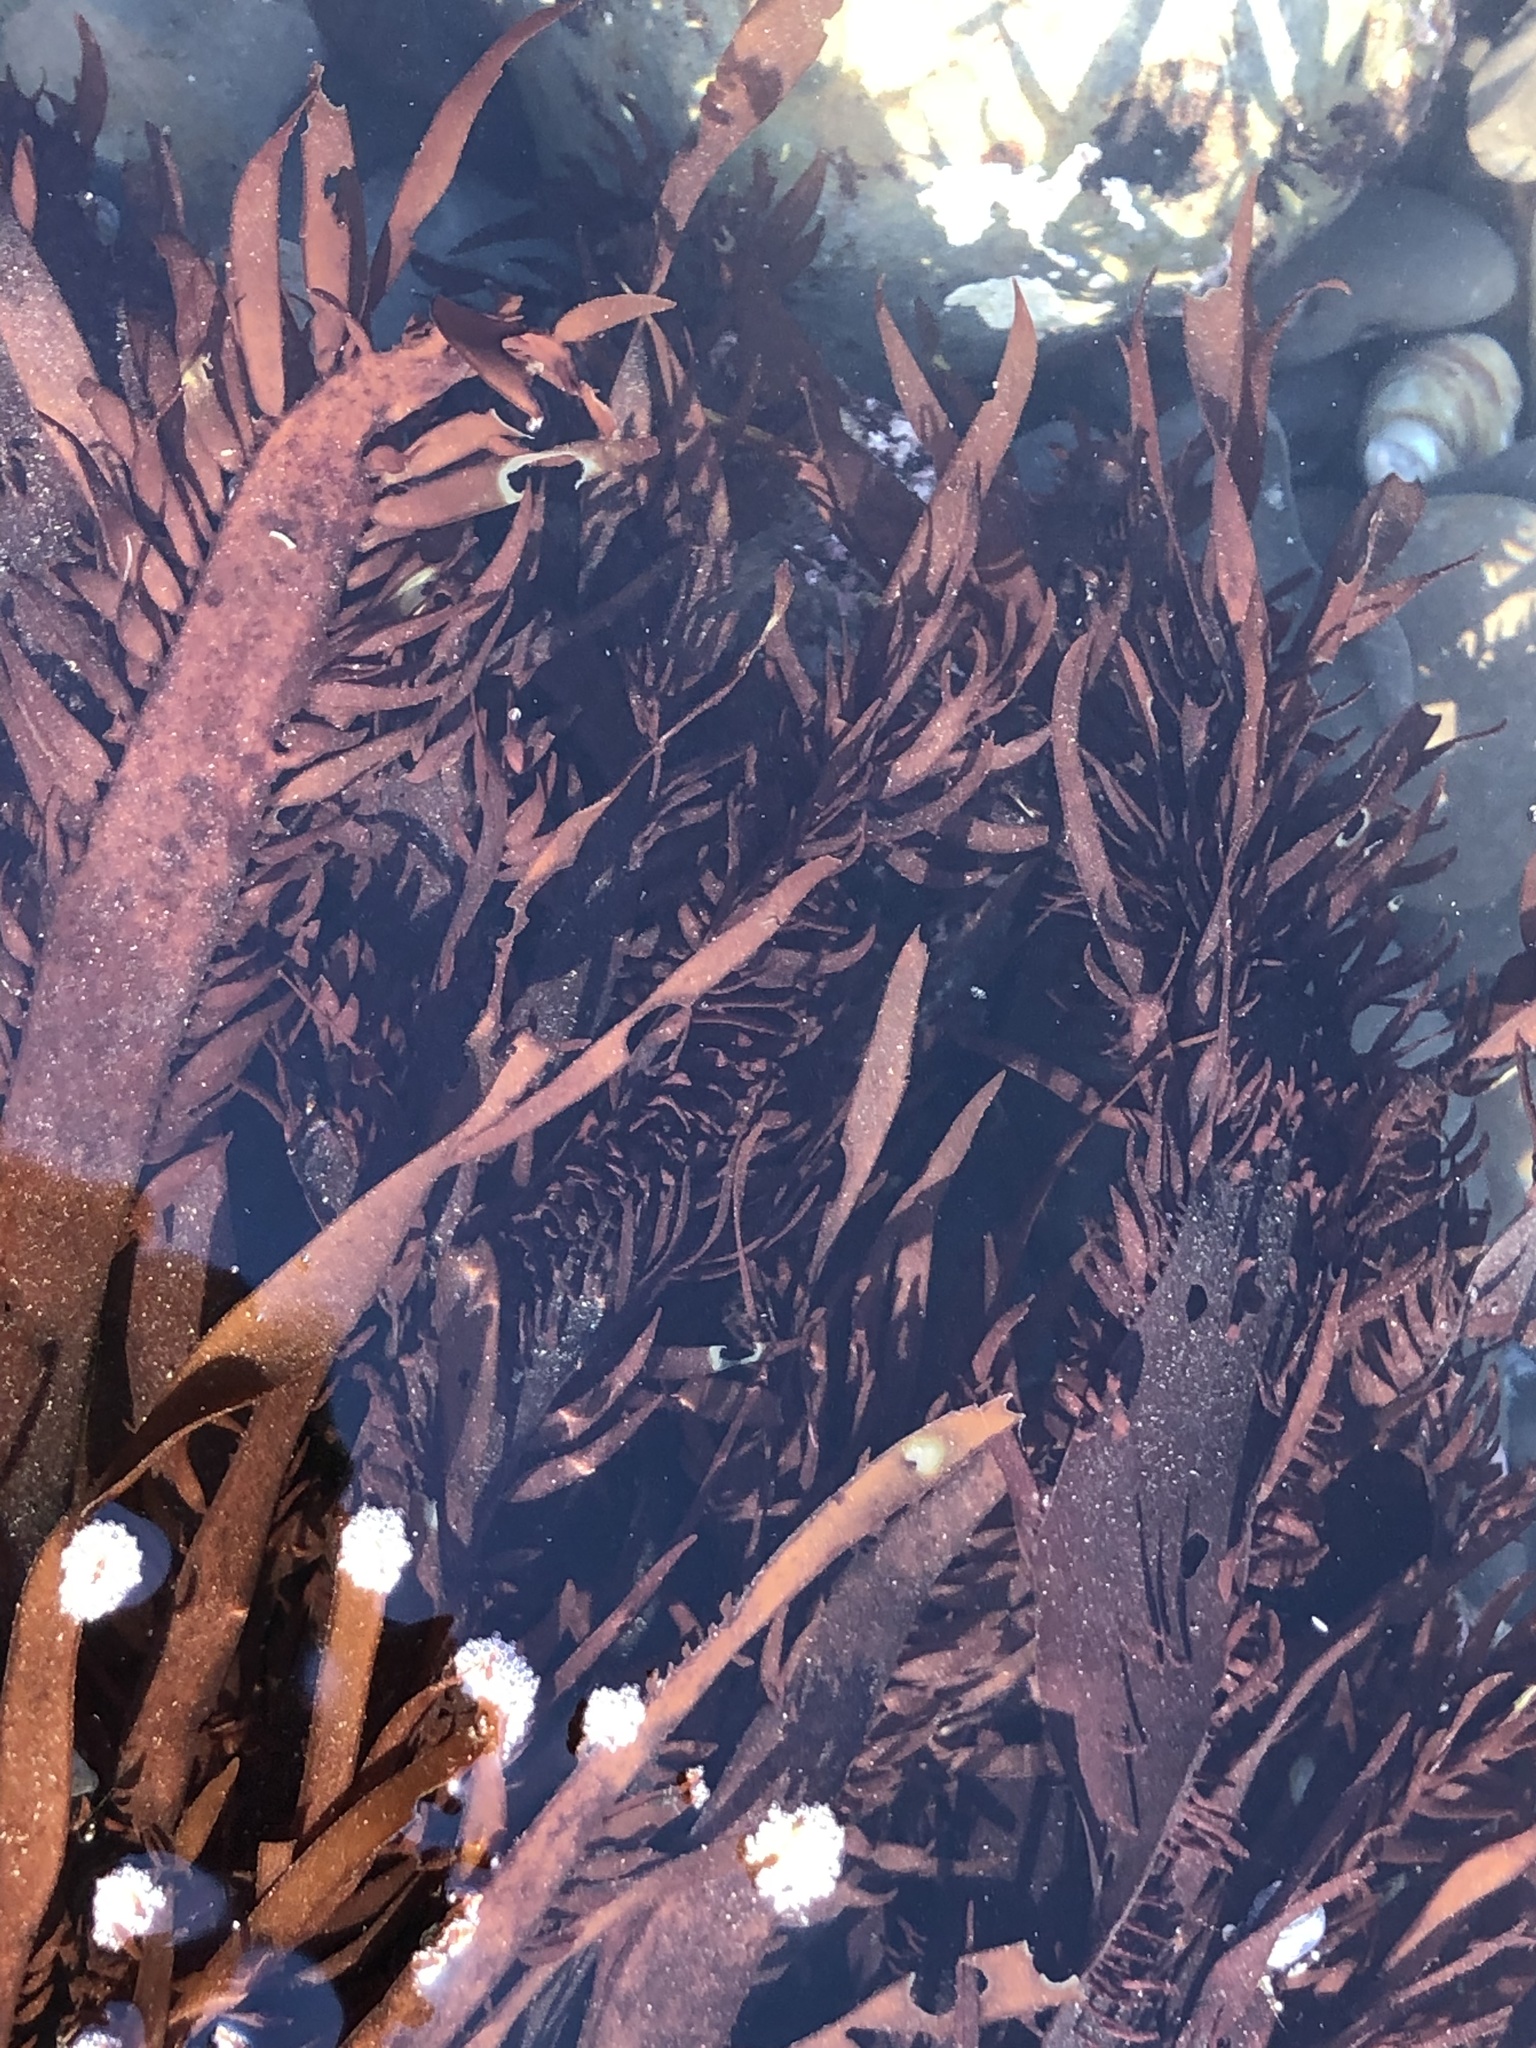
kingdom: Plantae
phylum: Rhodophyta
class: Florideophyceae
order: Halymeniales
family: Halymeniaceae
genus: Grateloupia
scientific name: Grateloupia Prionitis lanceolata
